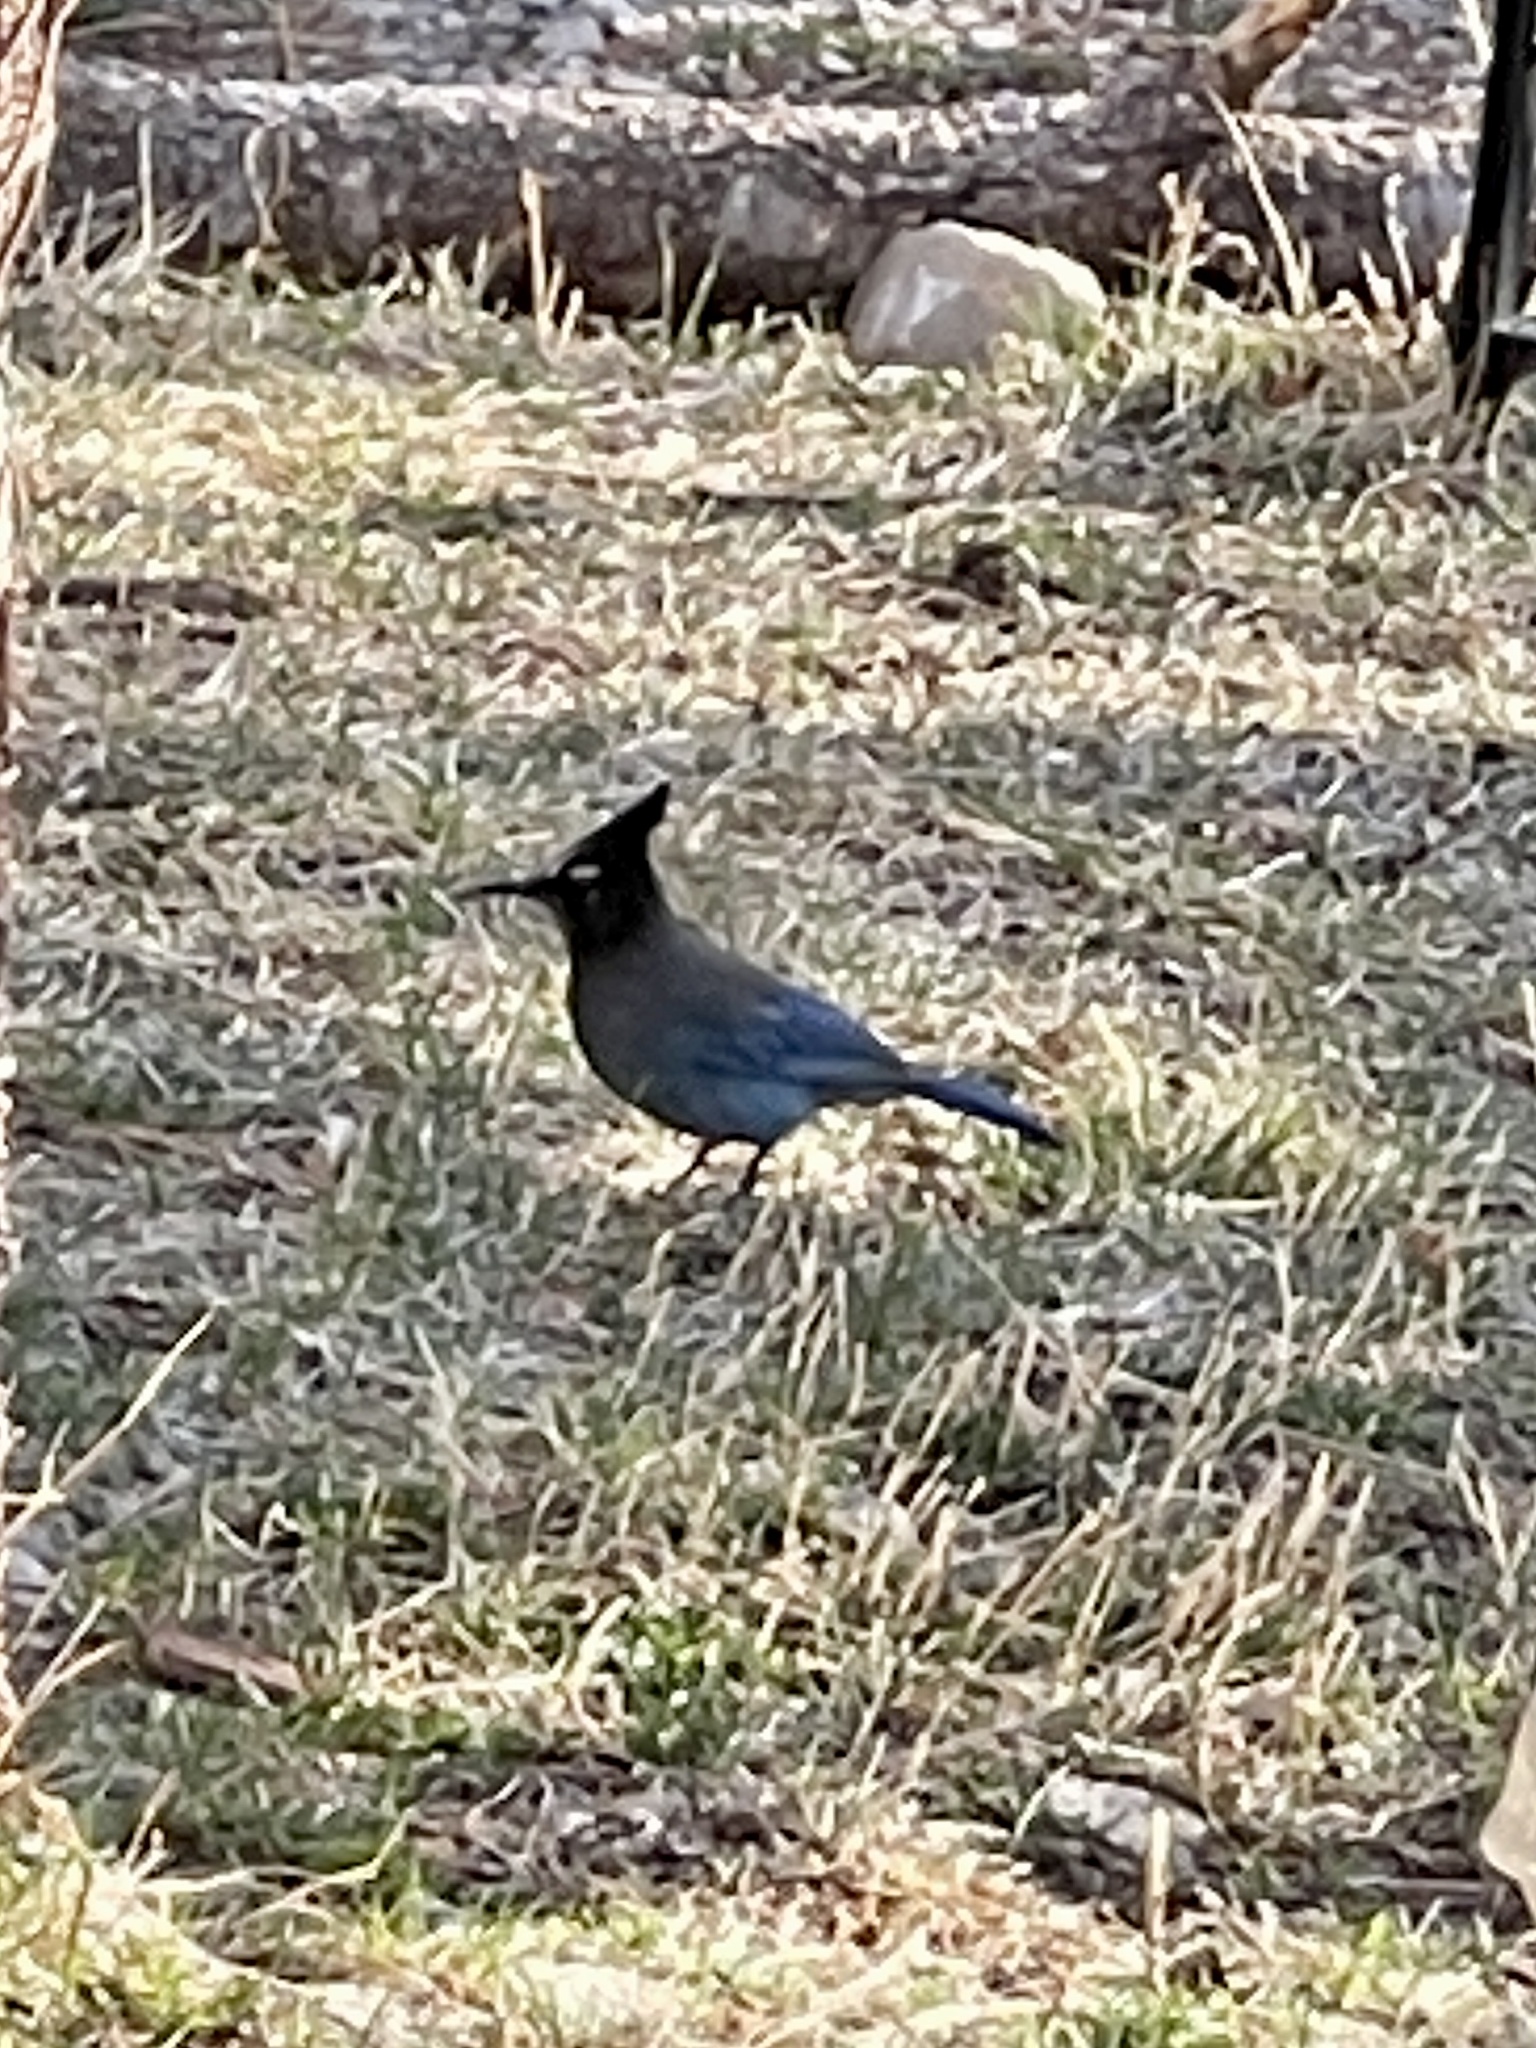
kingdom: Animalia
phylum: Chordata
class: Aves
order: Passeriformes
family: Corvidae
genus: Cyanocitta
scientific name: Cyanocitta stelleri
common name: Steller's jay
